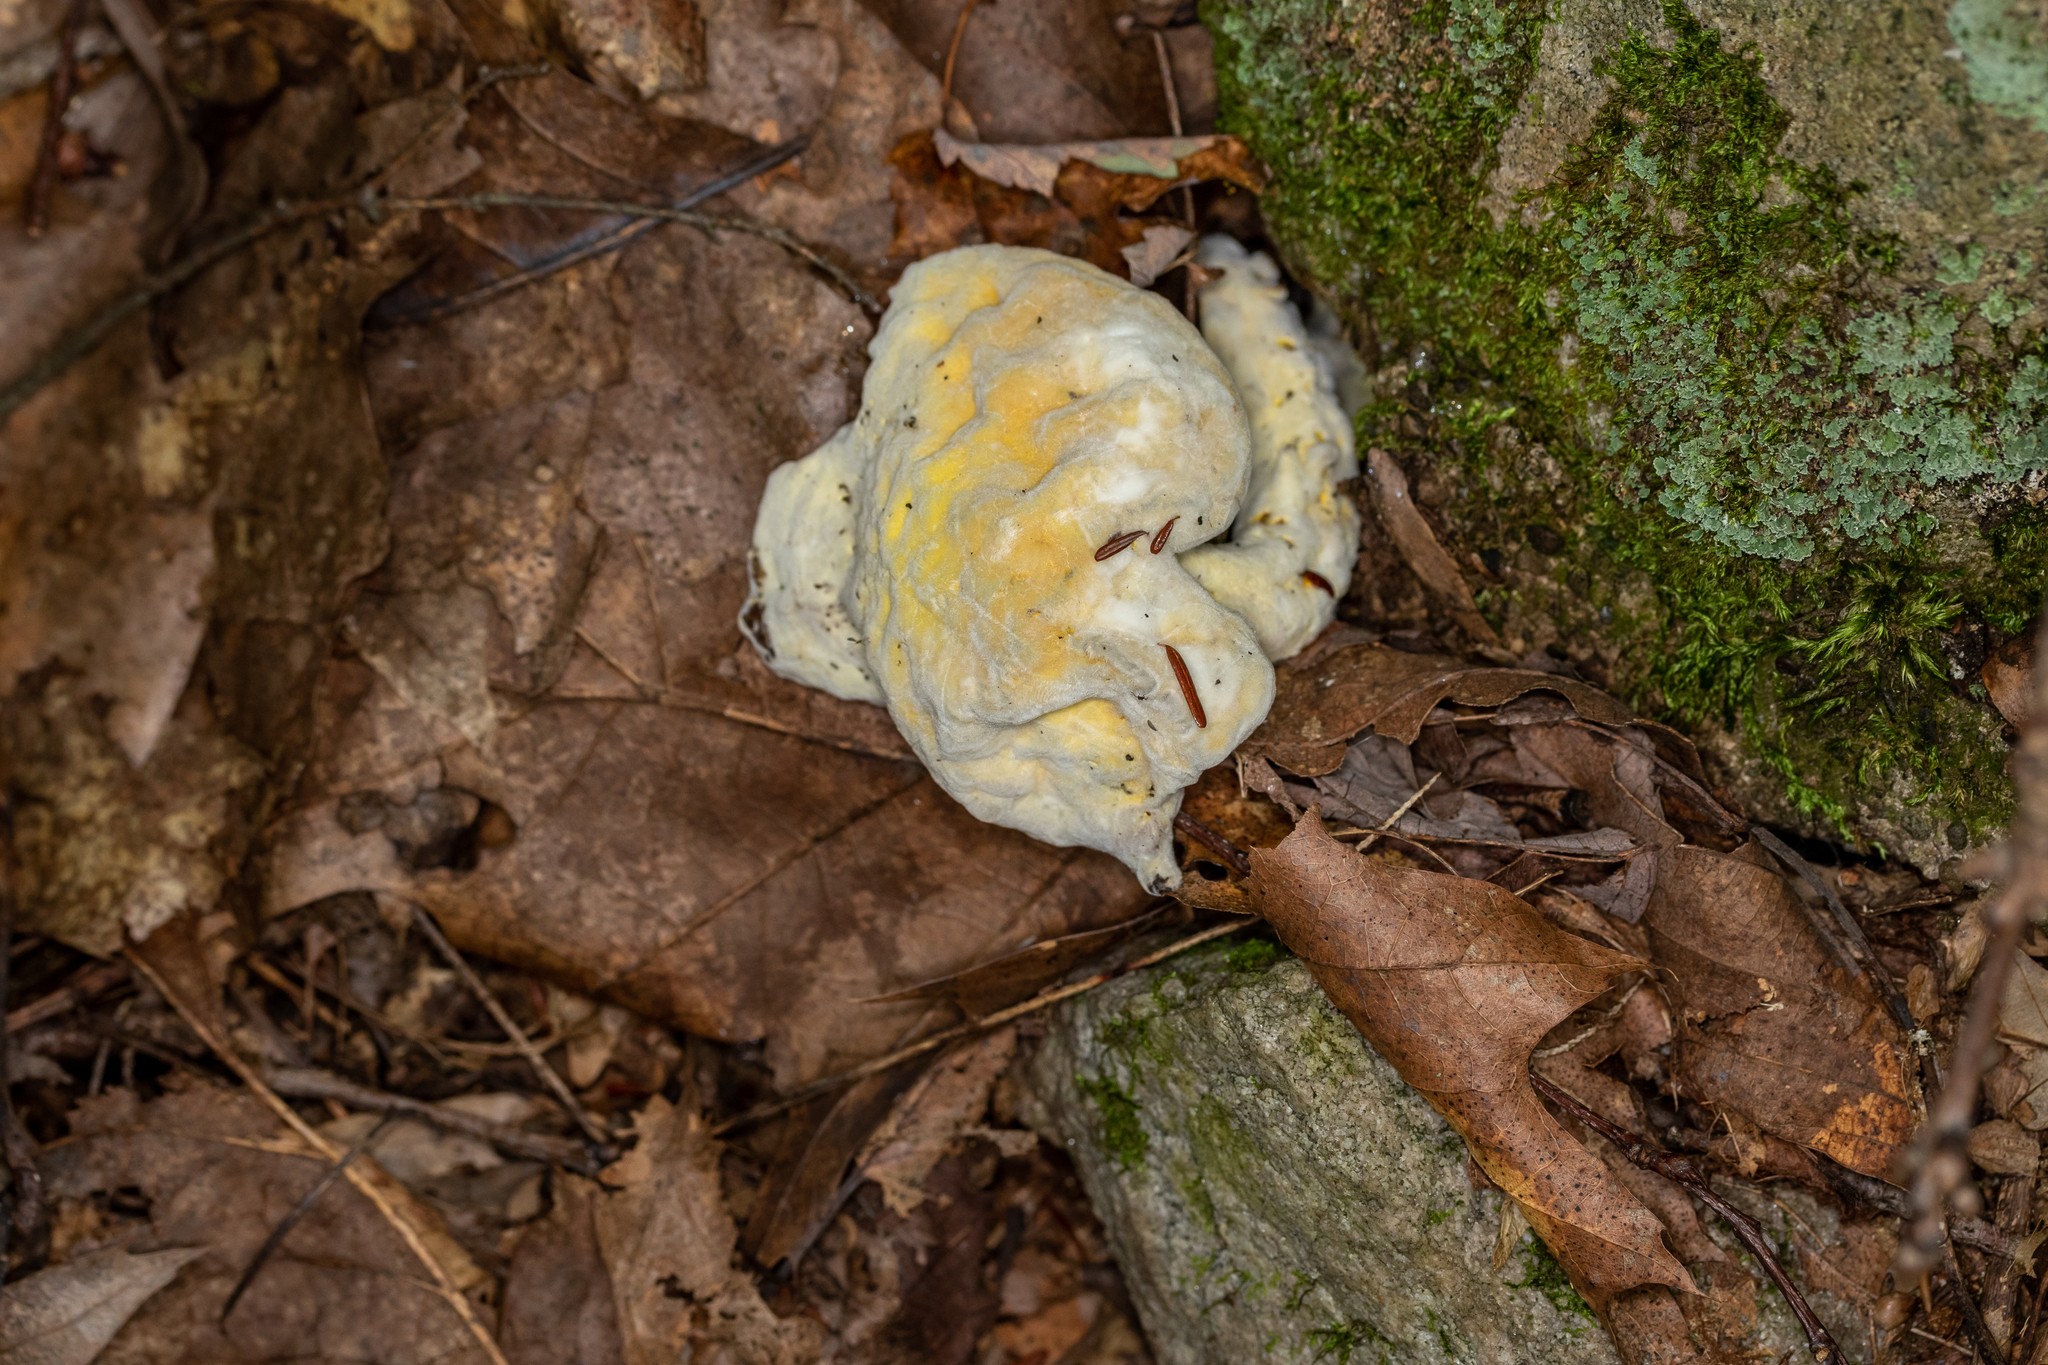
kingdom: Fungi
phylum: Ascomycota
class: Sordariomycetes
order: Hypocreales
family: Hypocreaceae
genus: Hypomyces
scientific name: Hypomyces chrysospermus
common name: Bolete mould
